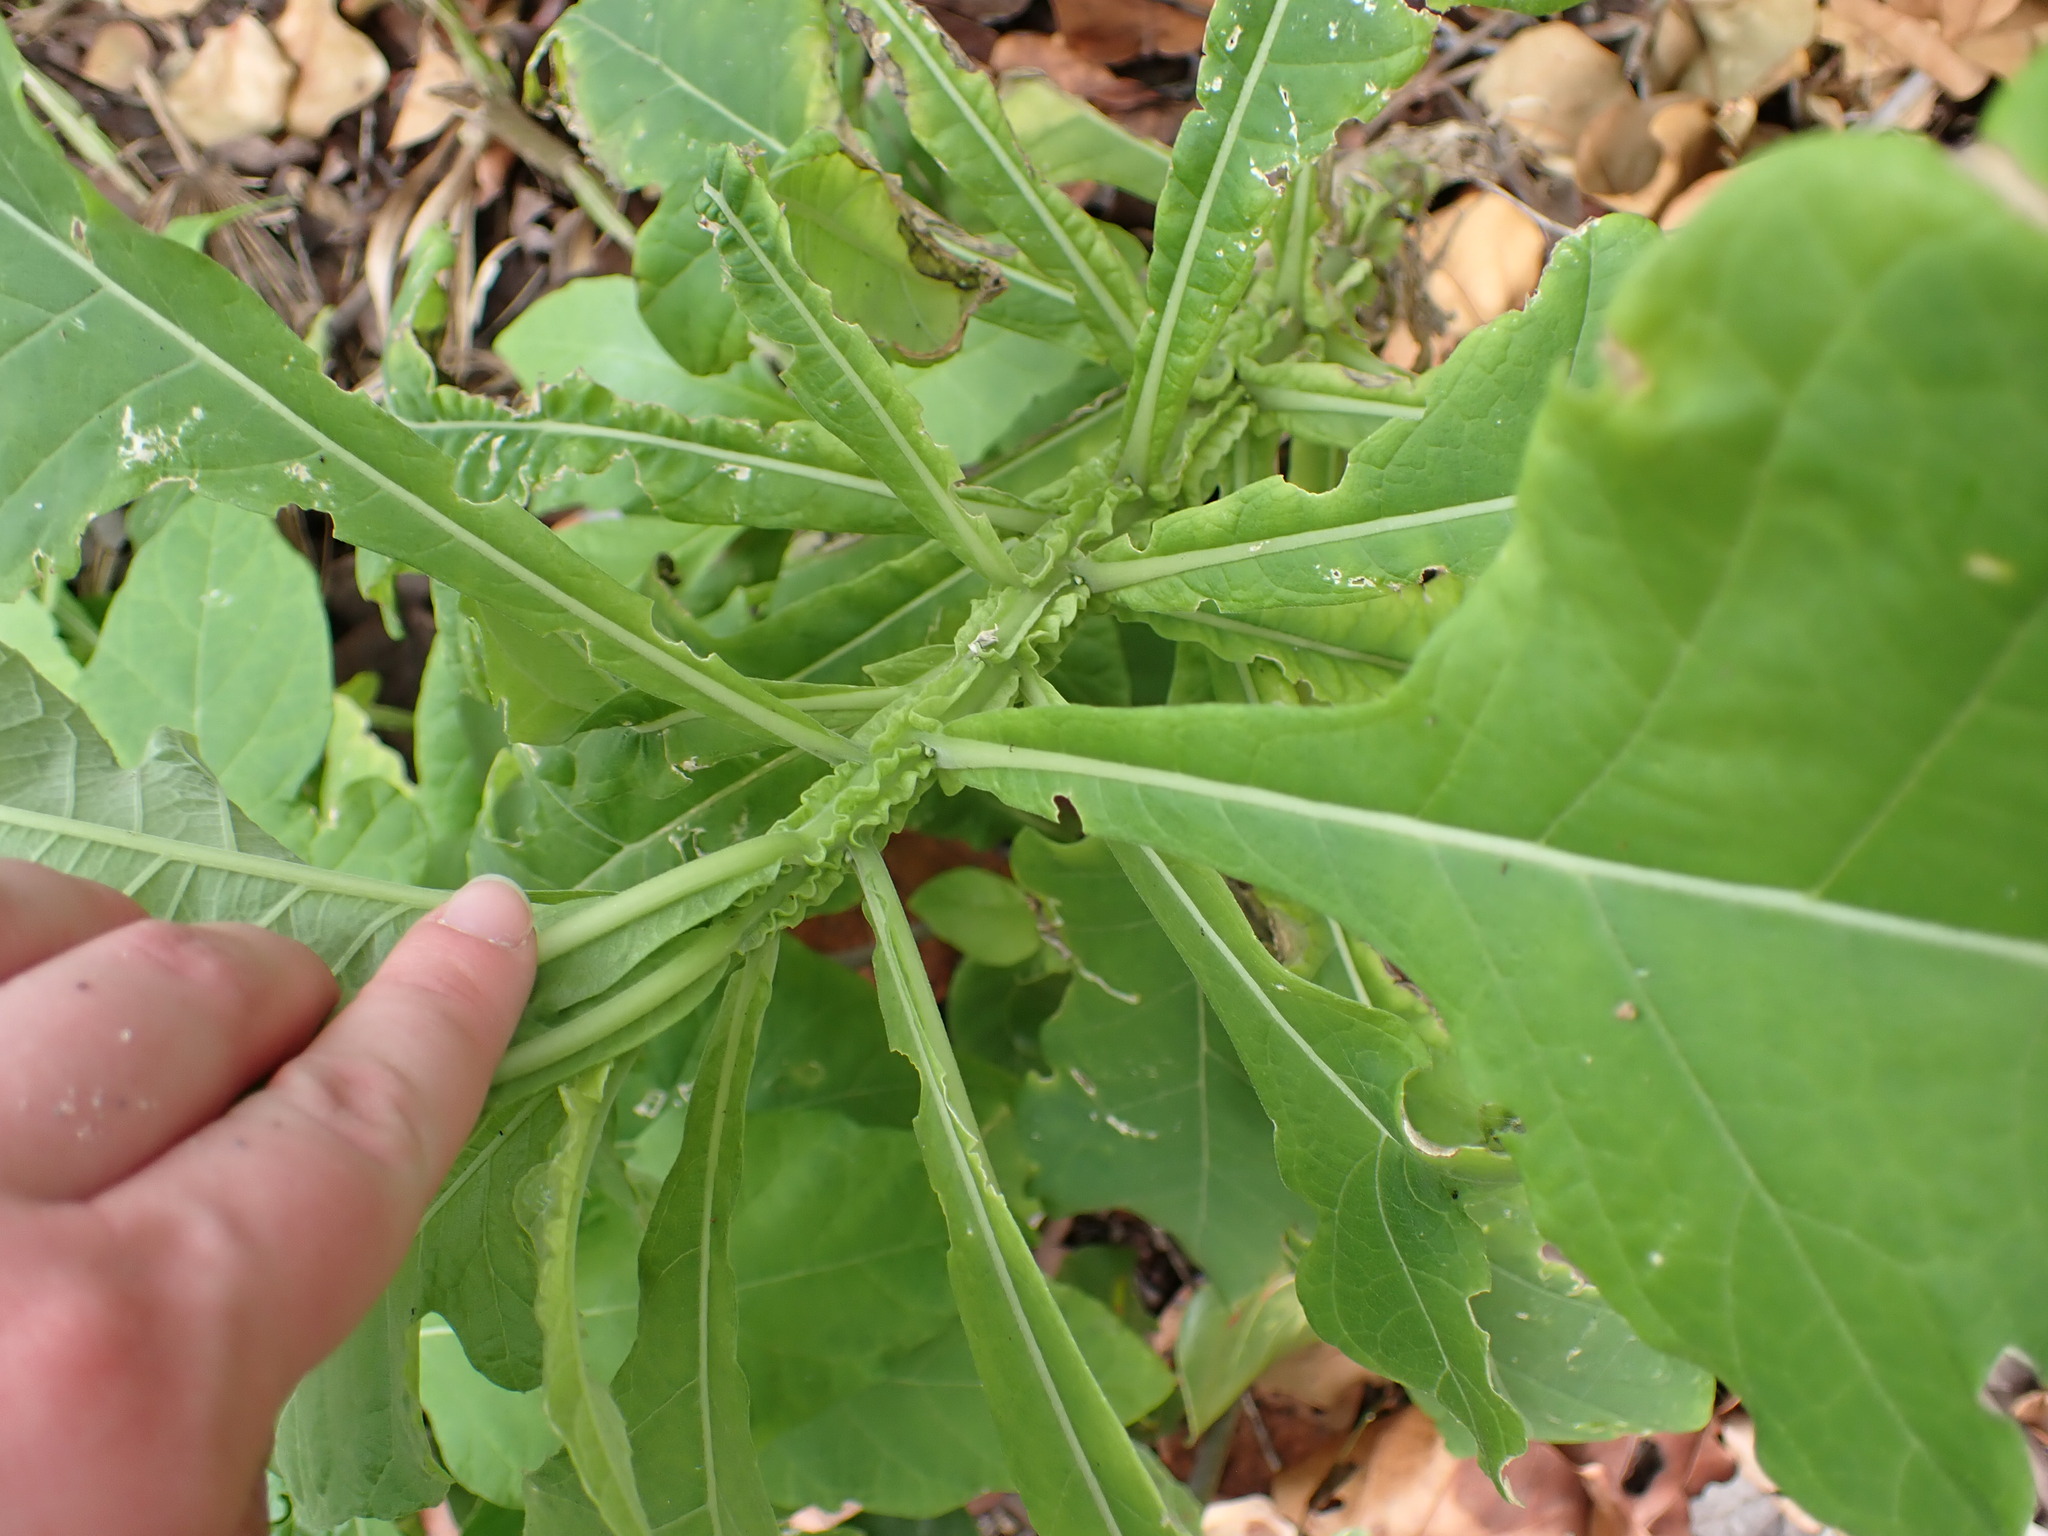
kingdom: Plantae
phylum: Tracheophyta
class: Magnoliopsida
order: Asterales
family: Asteraceae
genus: Verbesina
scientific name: Verbesina virginica
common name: Frostweed
